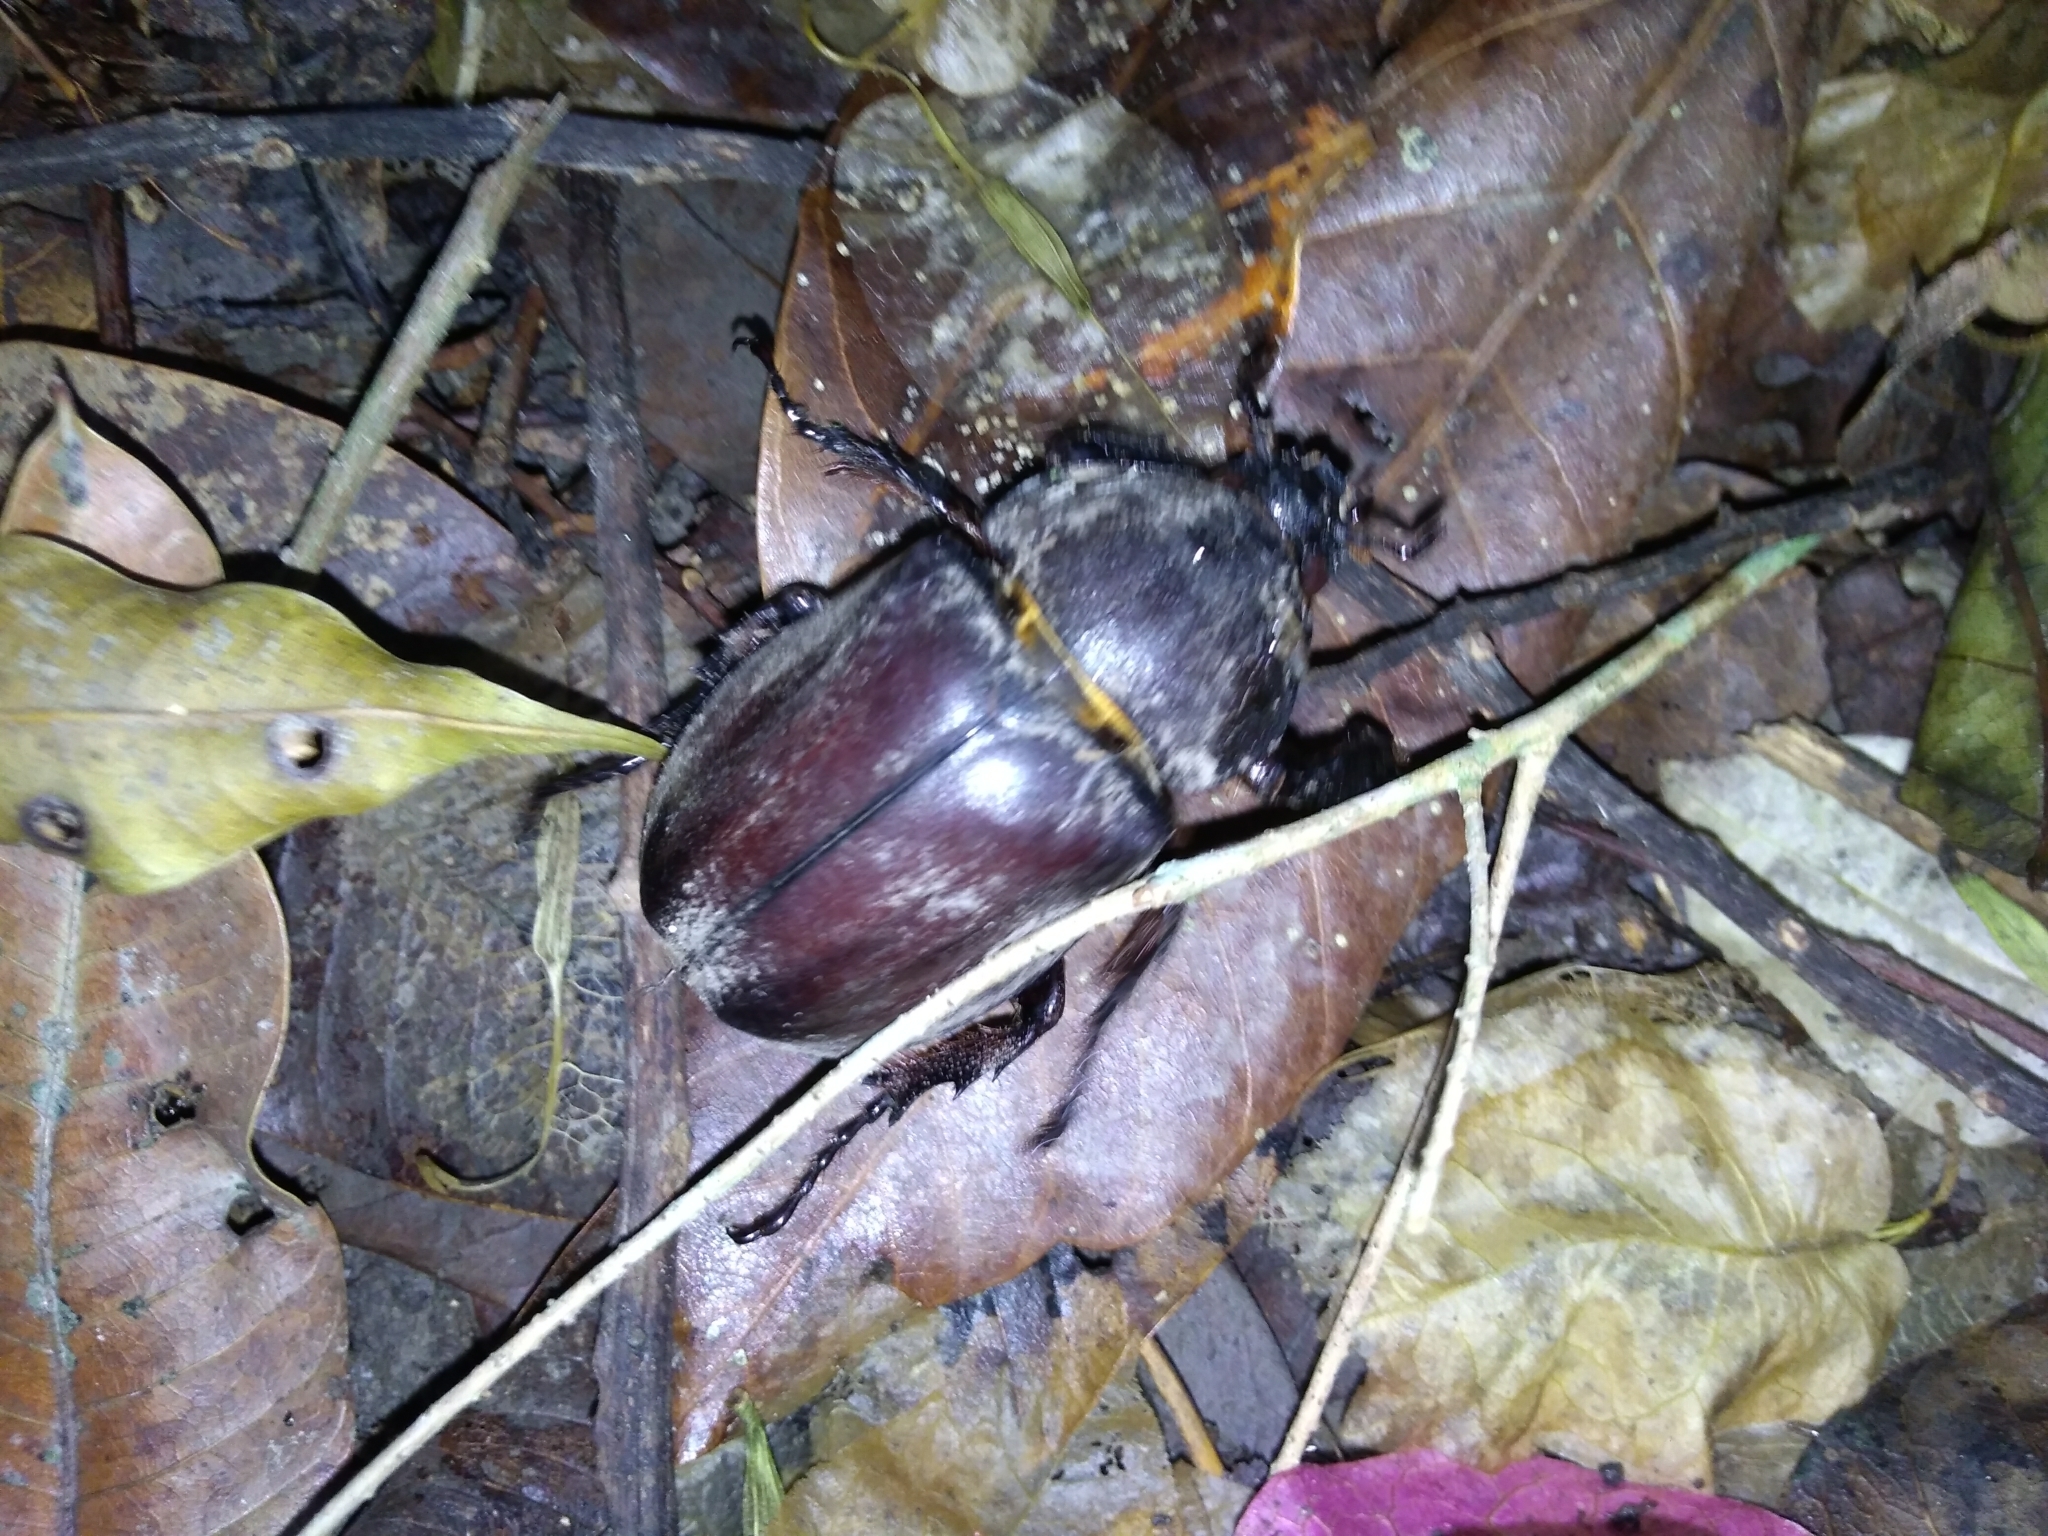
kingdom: Animalia
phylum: Arthropoda
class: Insecta
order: Coleoptera
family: Scarabaeidae
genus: Trypoxylus
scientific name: Trypoxylus dichotomus
